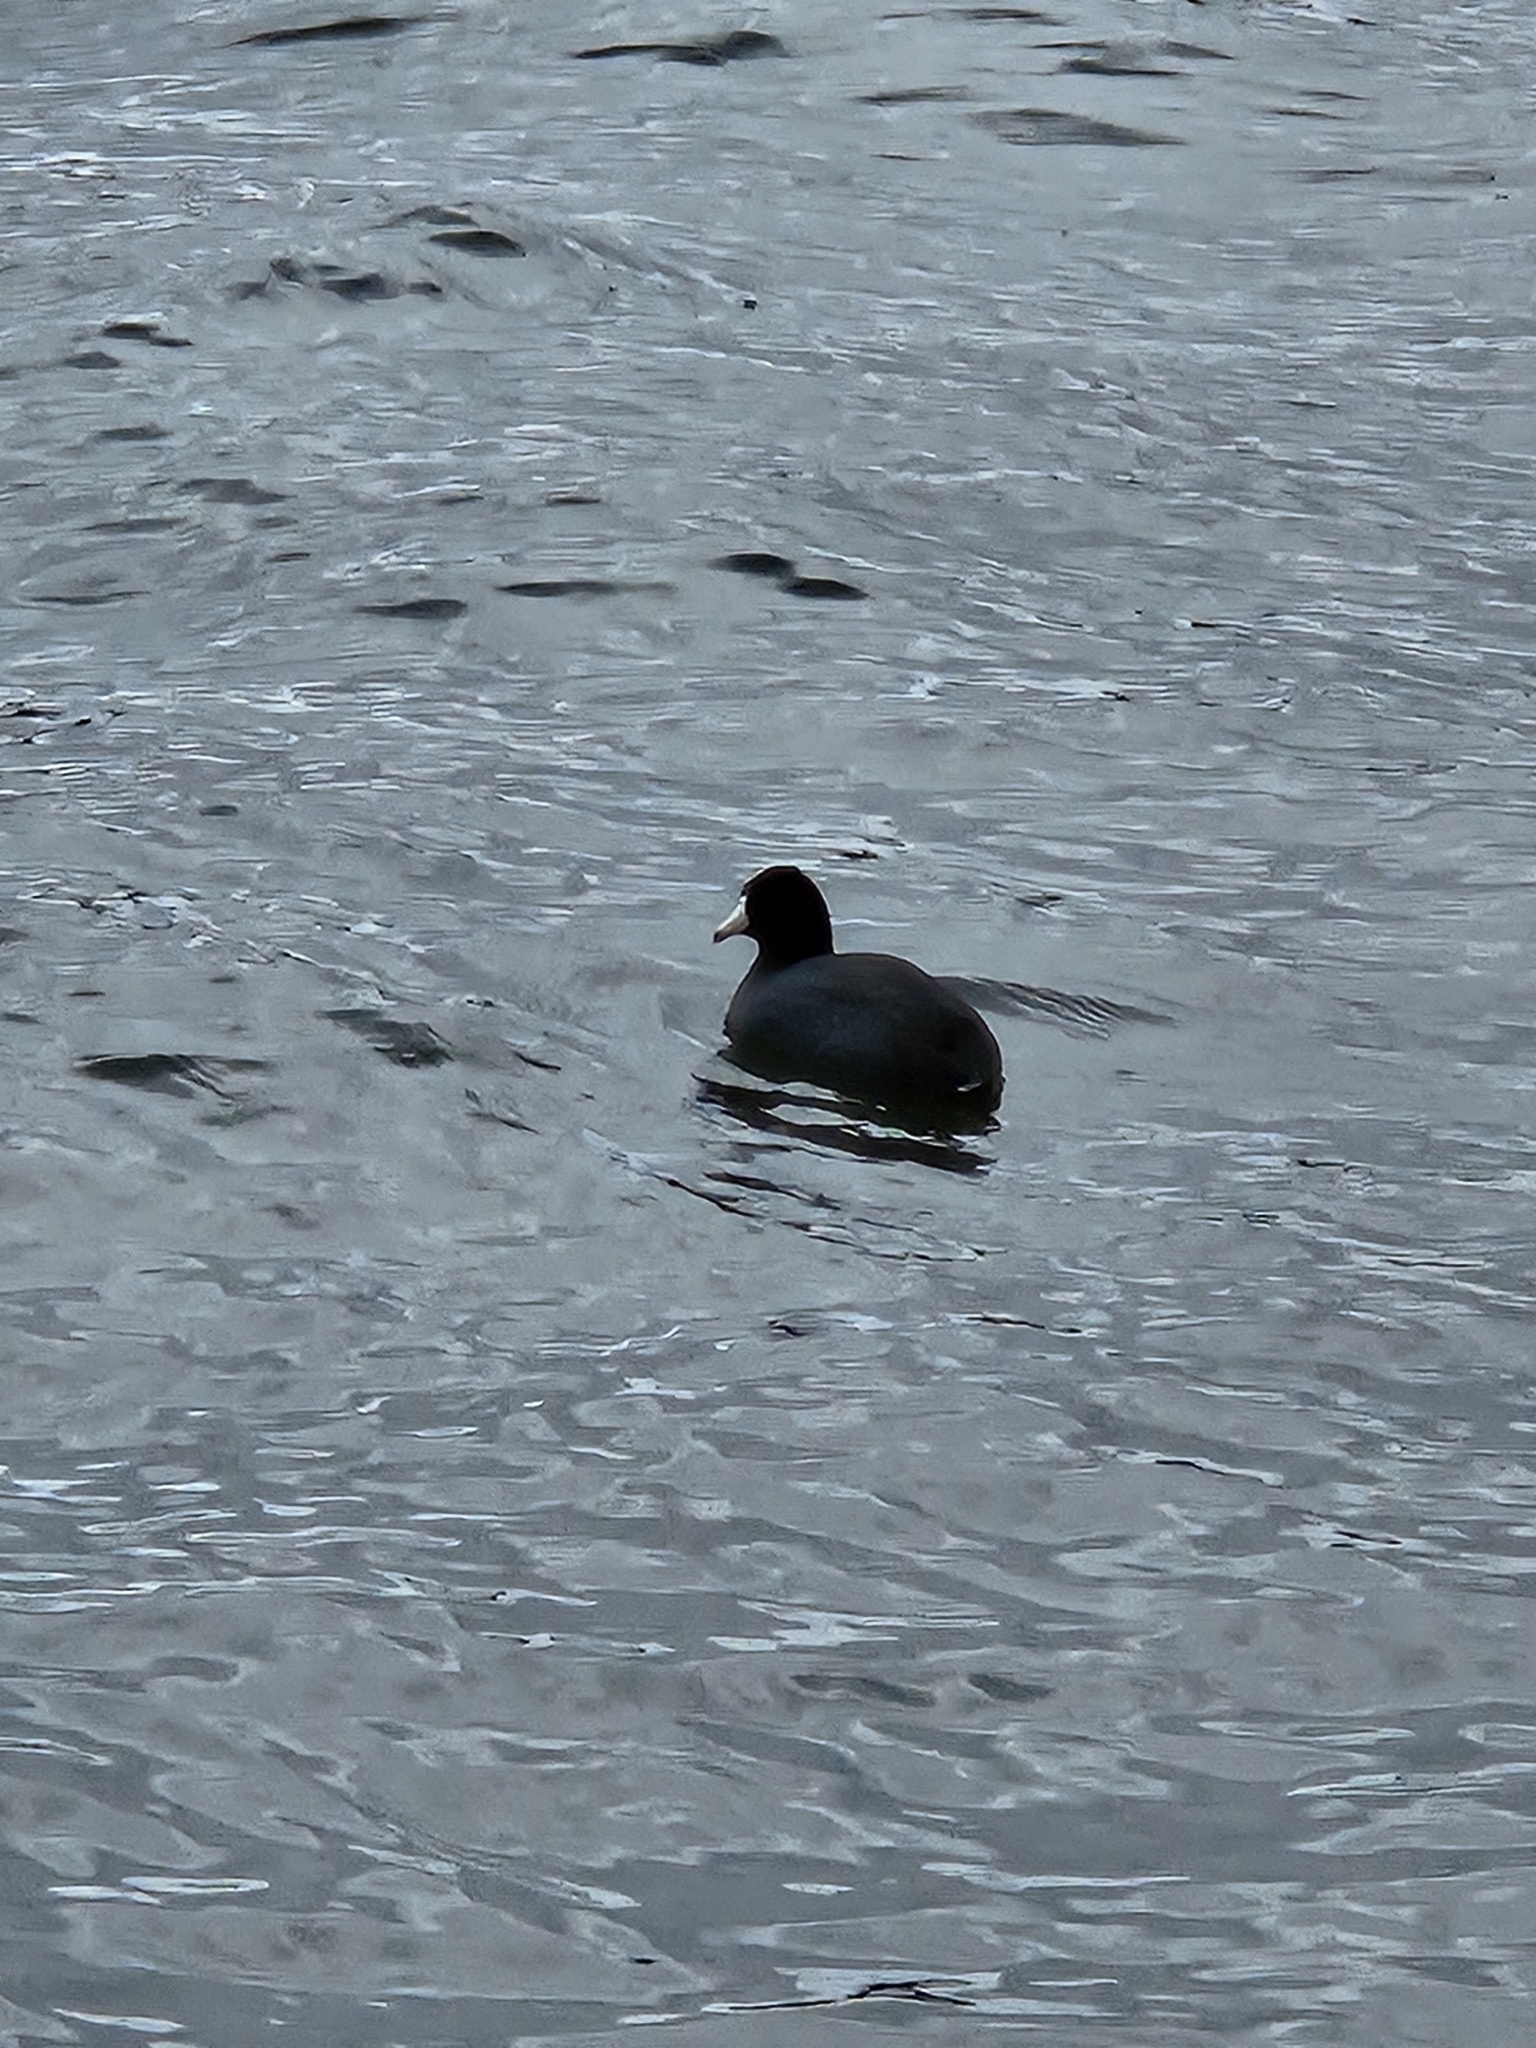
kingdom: Animalia
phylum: Chordata
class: Aves
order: Gruiformes
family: Rallidae
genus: Fulica
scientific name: Fulica americana
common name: American coot
